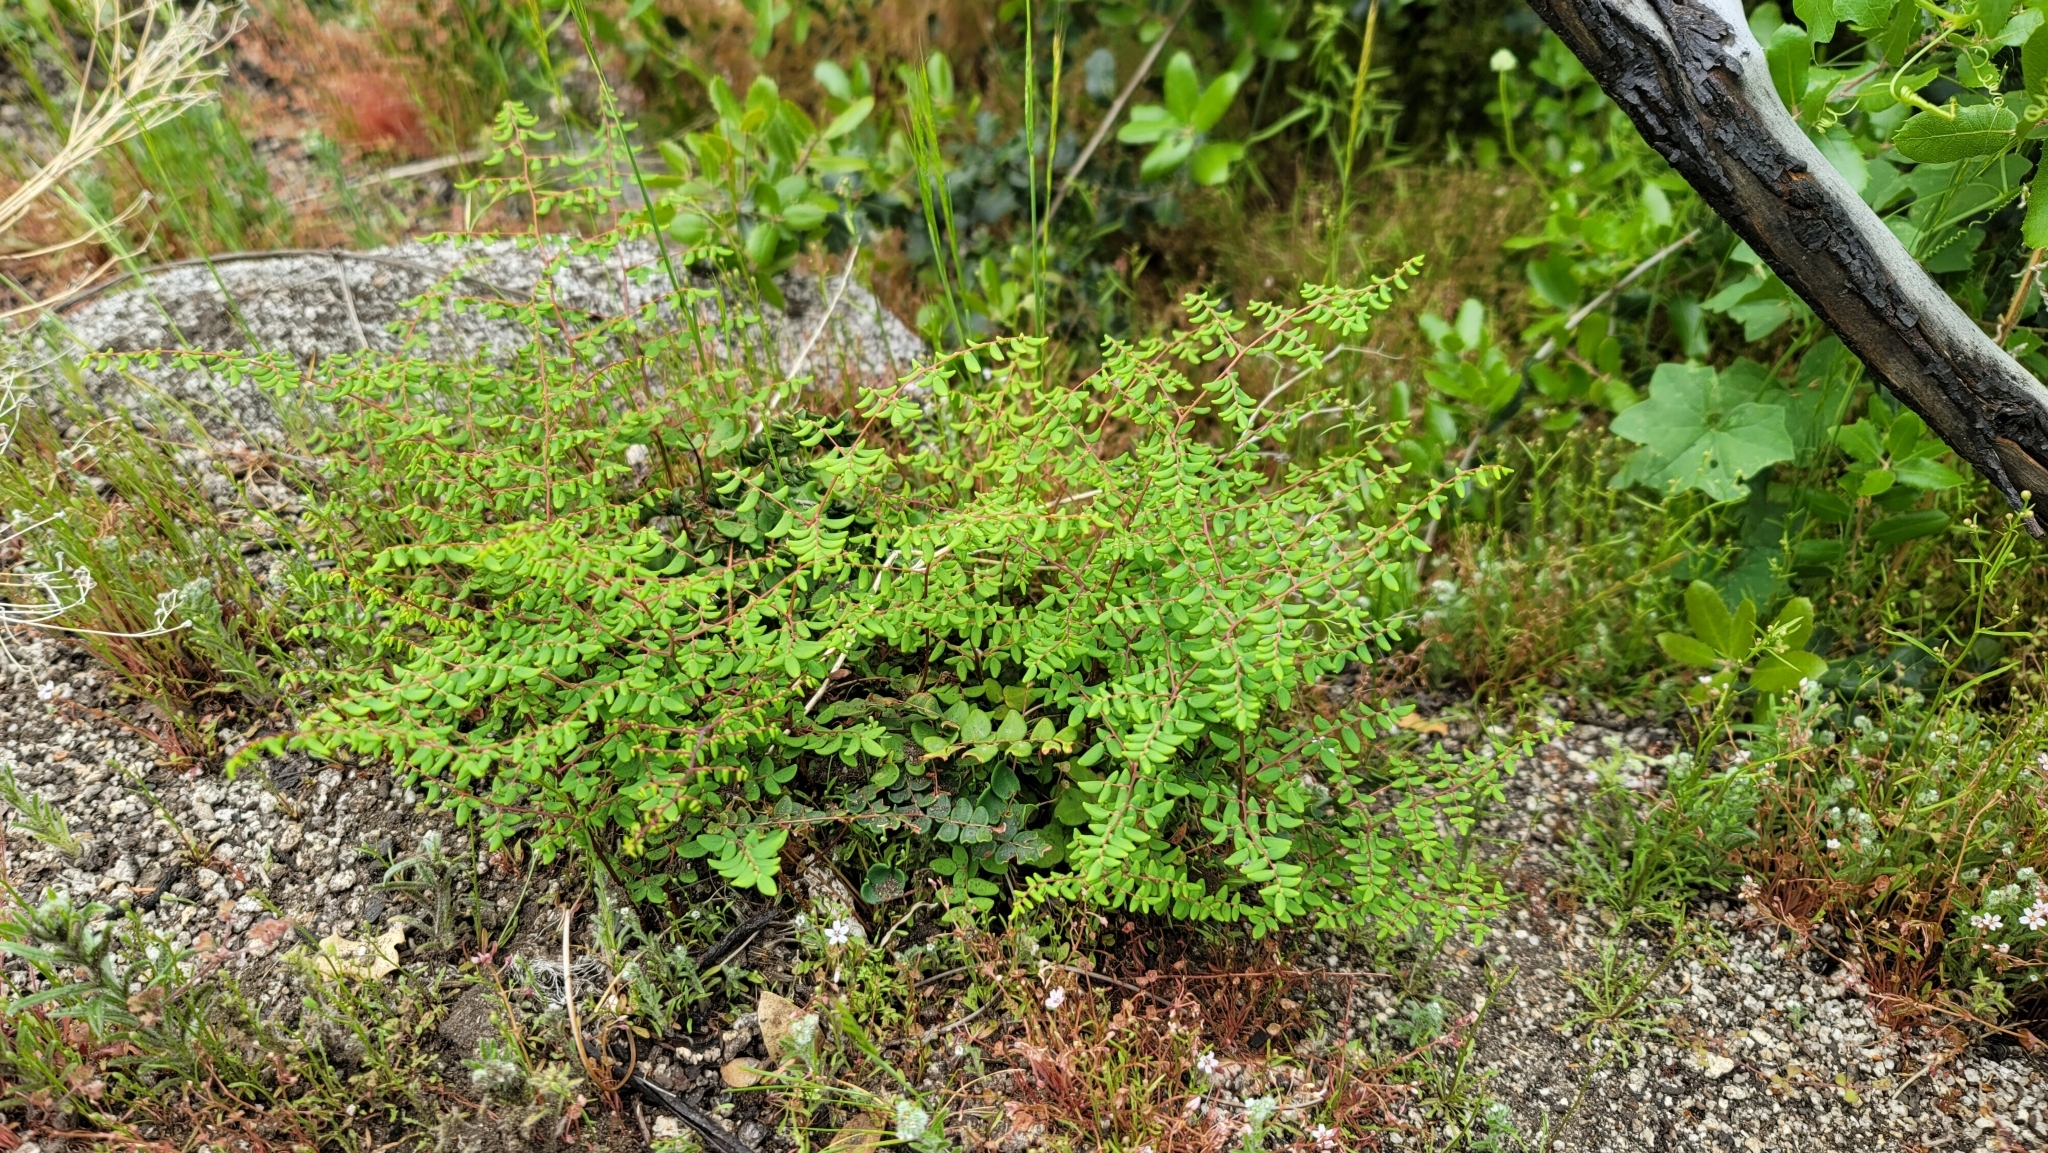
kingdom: Plantae
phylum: Tracheophyta
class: Polypodiopsida
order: Polypodiales
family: Pteridaceae
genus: Pellaea
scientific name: Pellaea andromedifolia
